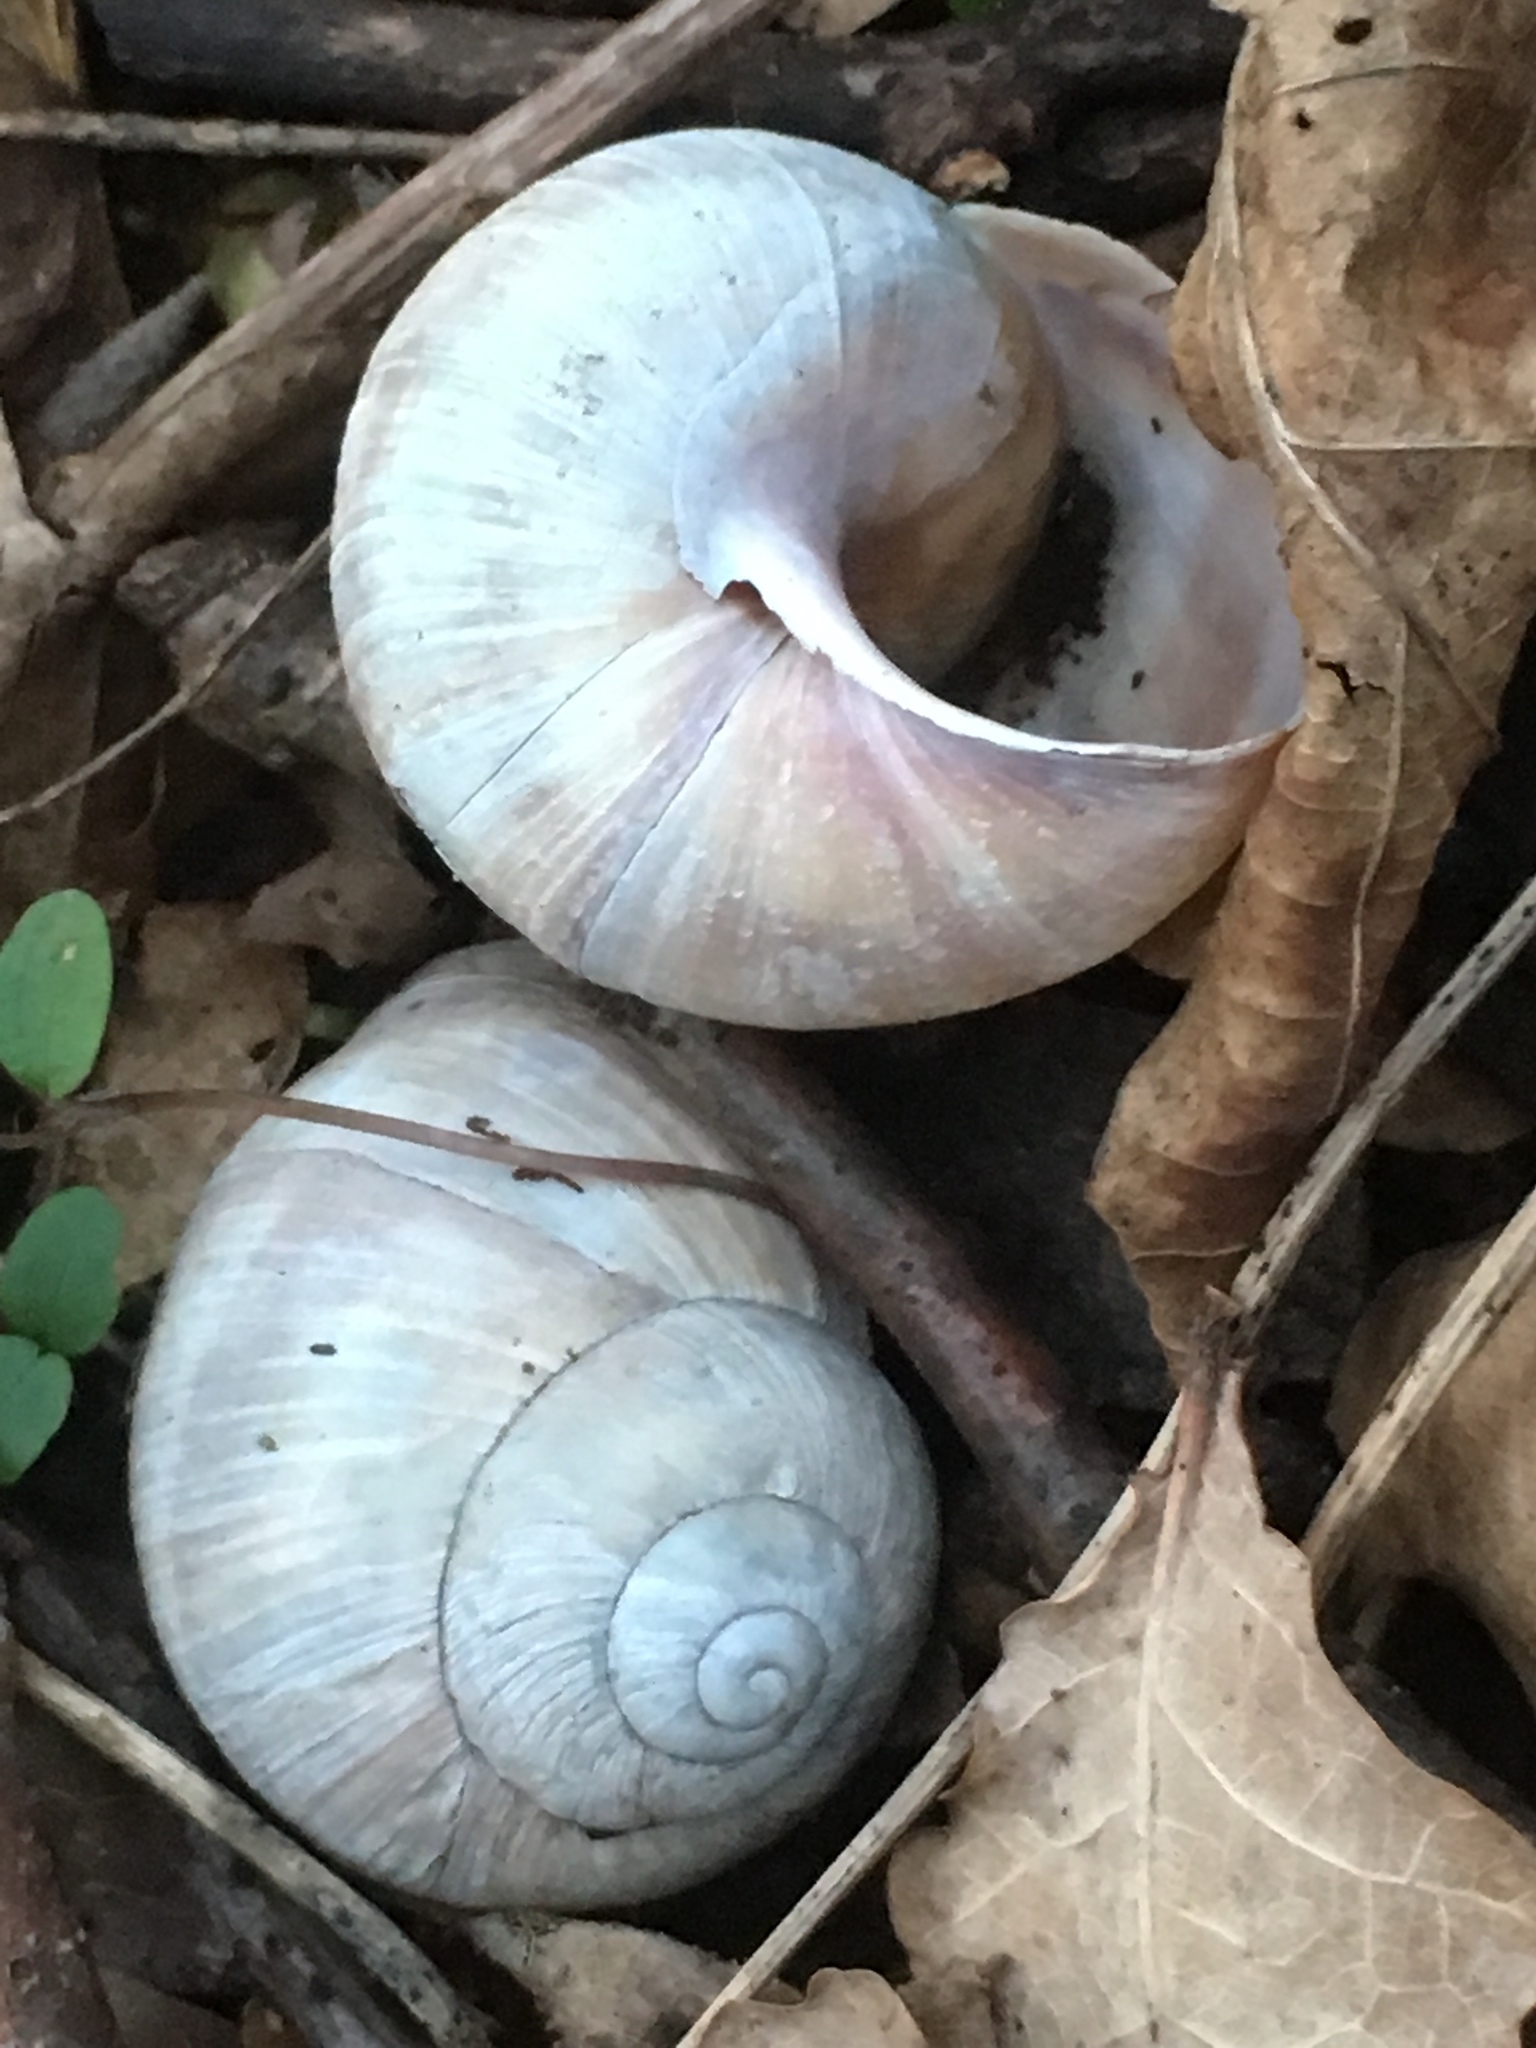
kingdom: Animalia
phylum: Mollusca
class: Gastropoda
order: Stylommatophora
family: Helicidae
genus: Helix
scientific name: Helix pomatia
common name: Roman snail
